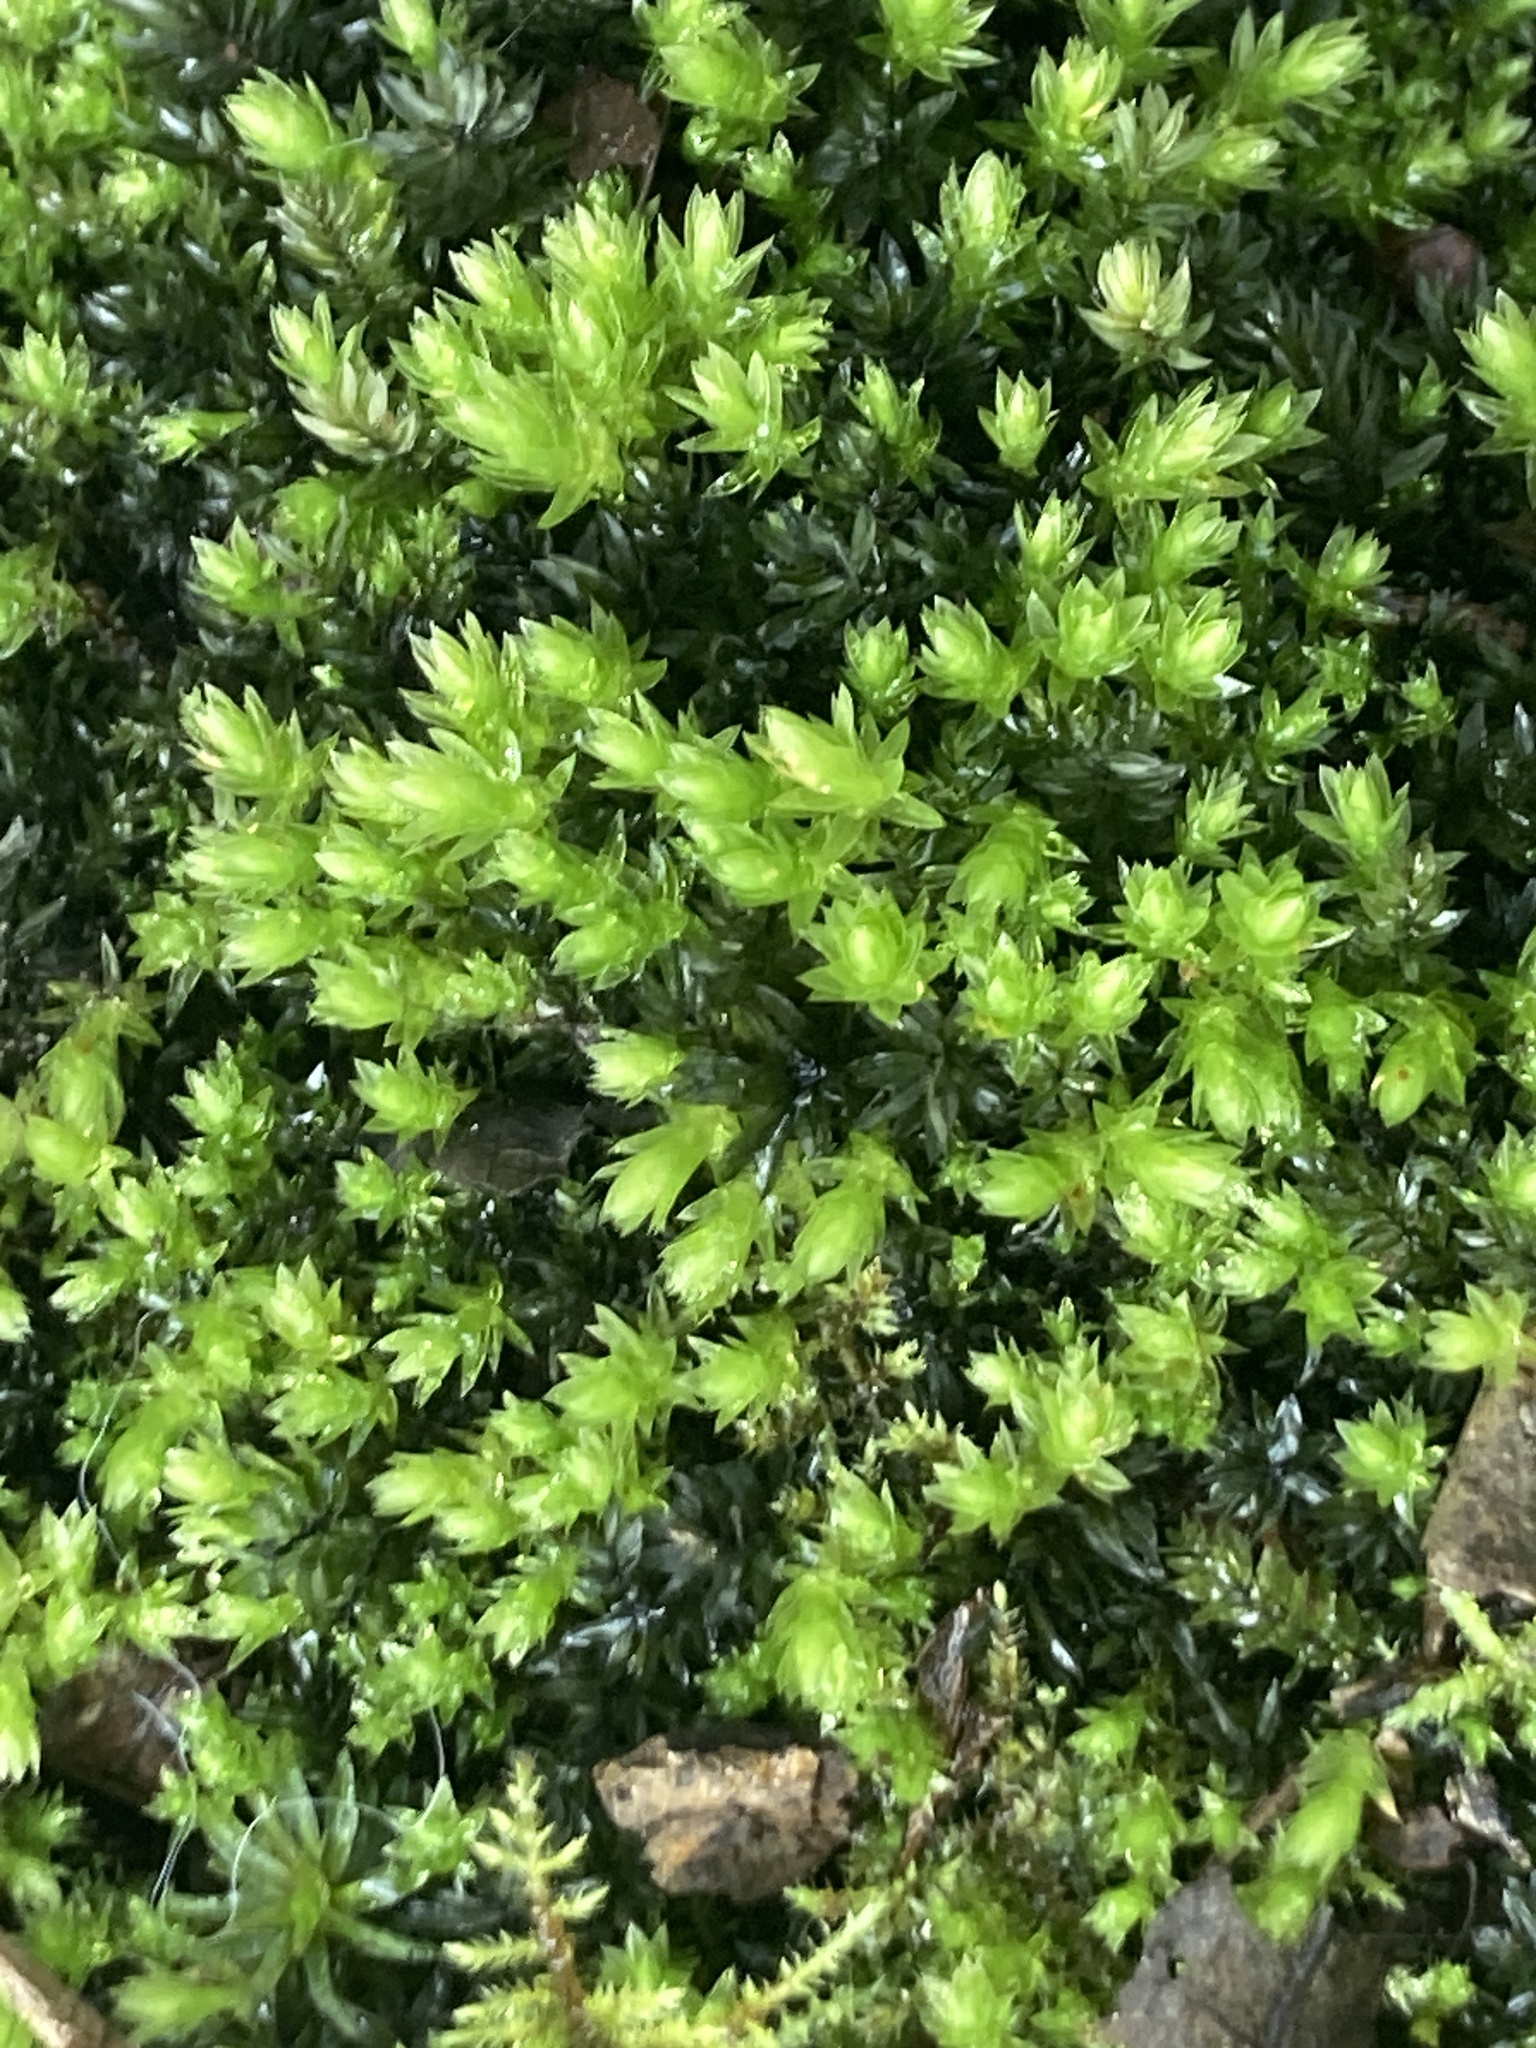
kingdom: Plantae
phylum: Bryophyta
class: Bryopsida
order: Bryales
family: Mniaceae
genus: Mnium
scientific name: Mnium hornum
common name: Swan's-neck leafy moss
